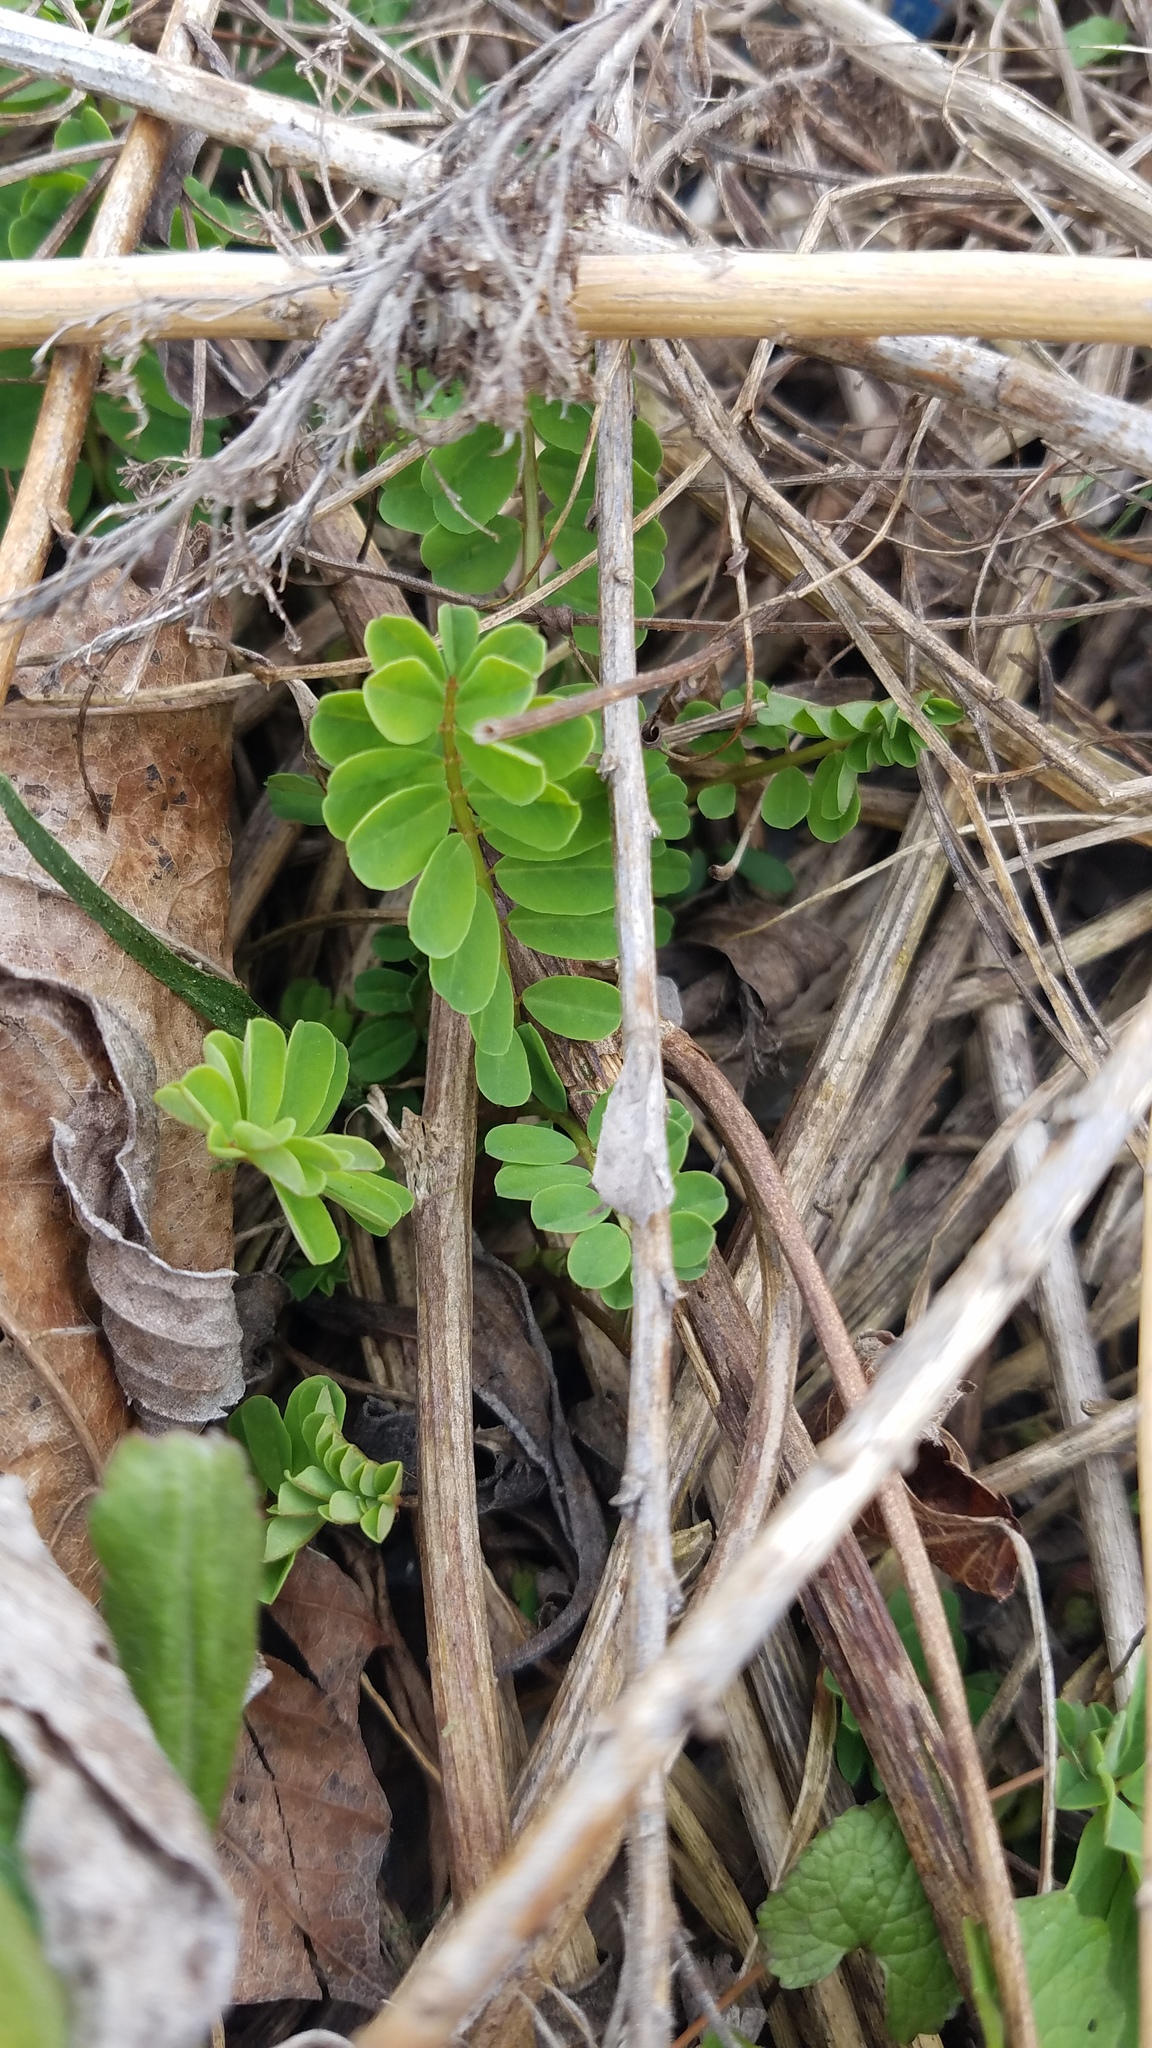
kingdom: Plantae
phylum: Tracheophyta
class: Magnoliopsida
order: Fabales
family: Fabaceae
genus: Coronilla
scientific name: Coronilla varia
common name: Crownvetch
